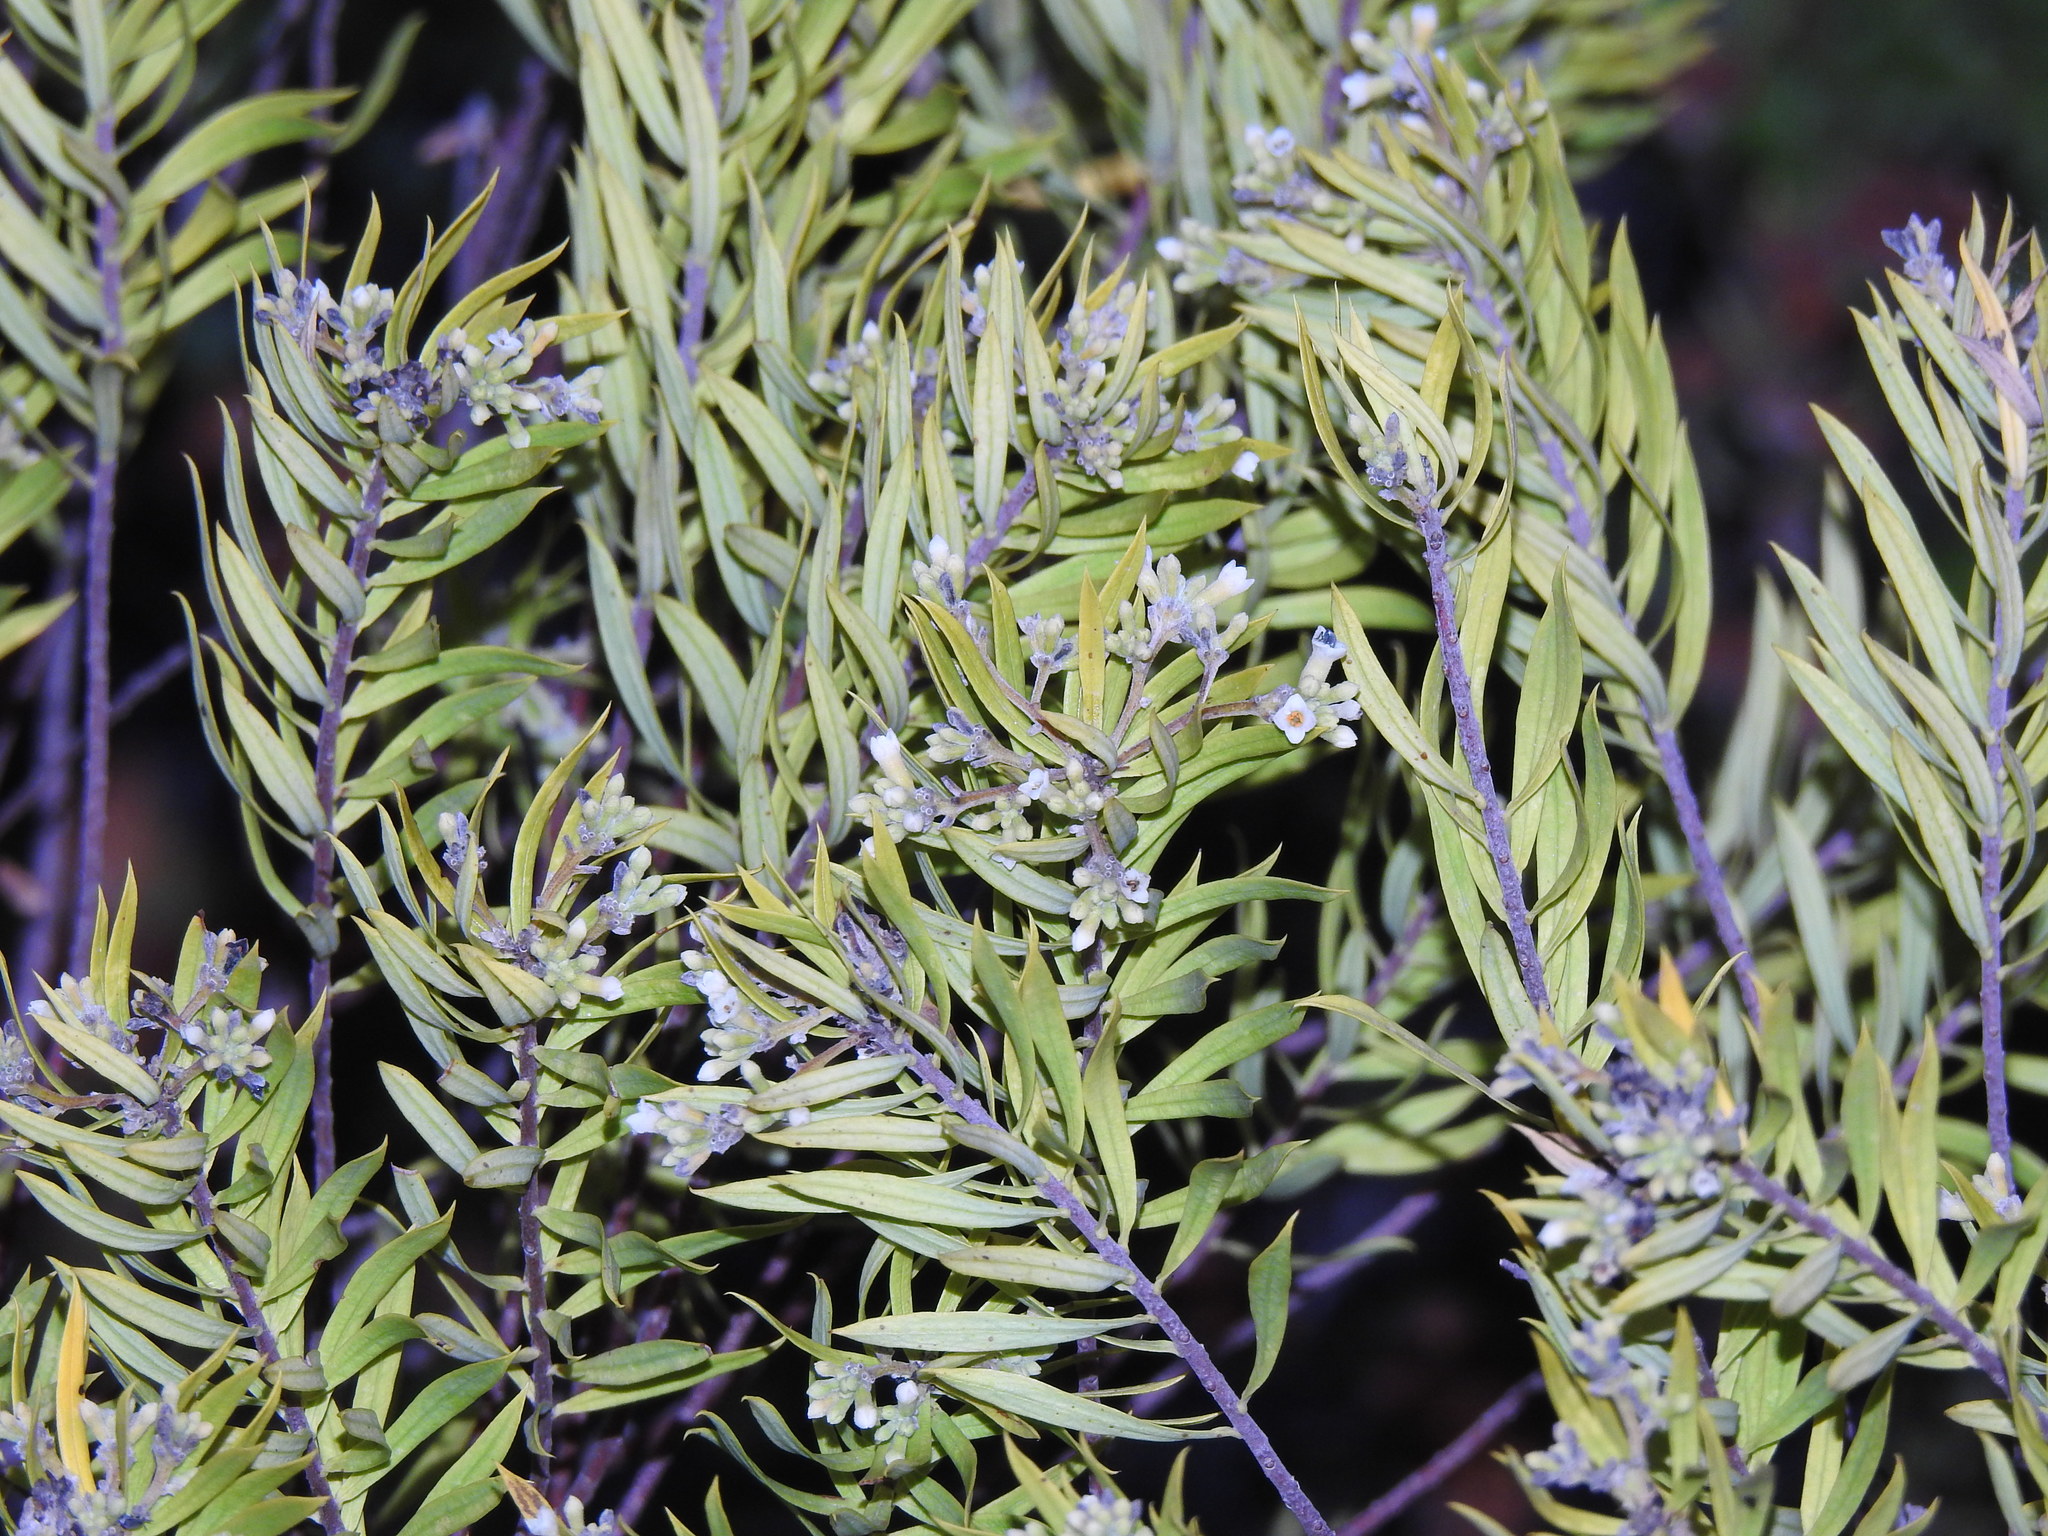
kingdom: Plantae
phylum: Tracheophyta
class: Magnoliopsida
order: Malvales
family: Thymelaeaceae
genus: Daphne
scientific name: Daphne gnidium
